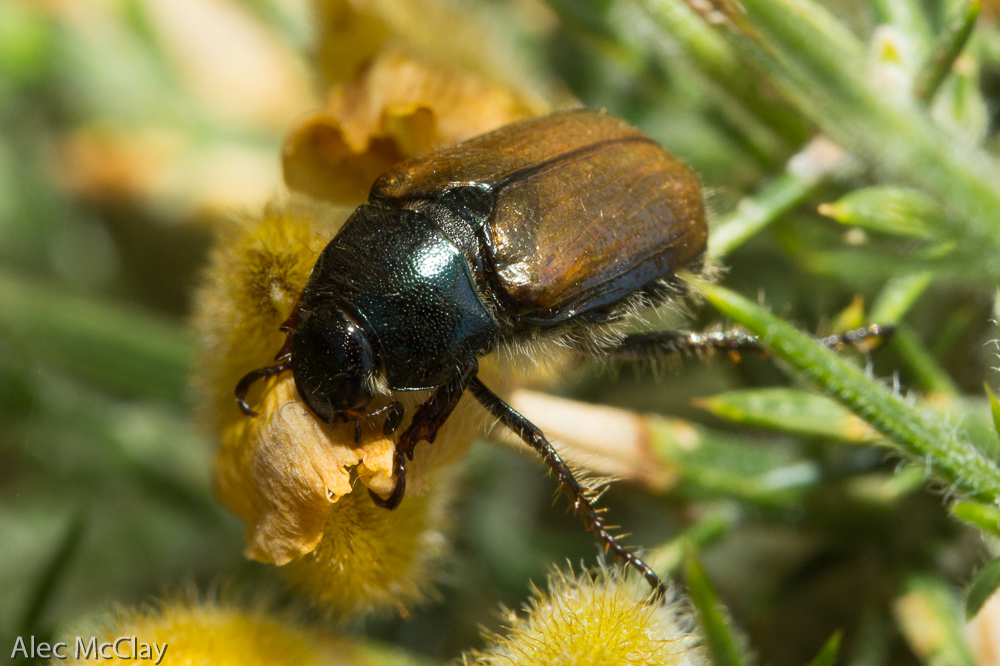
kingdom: Animalia
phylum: Arthropoda
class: Insecta
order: Coleoptera
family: Scarabaeidae
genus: Phyllopertha
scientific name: Phyllopertha horticola
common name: Garden chafer
